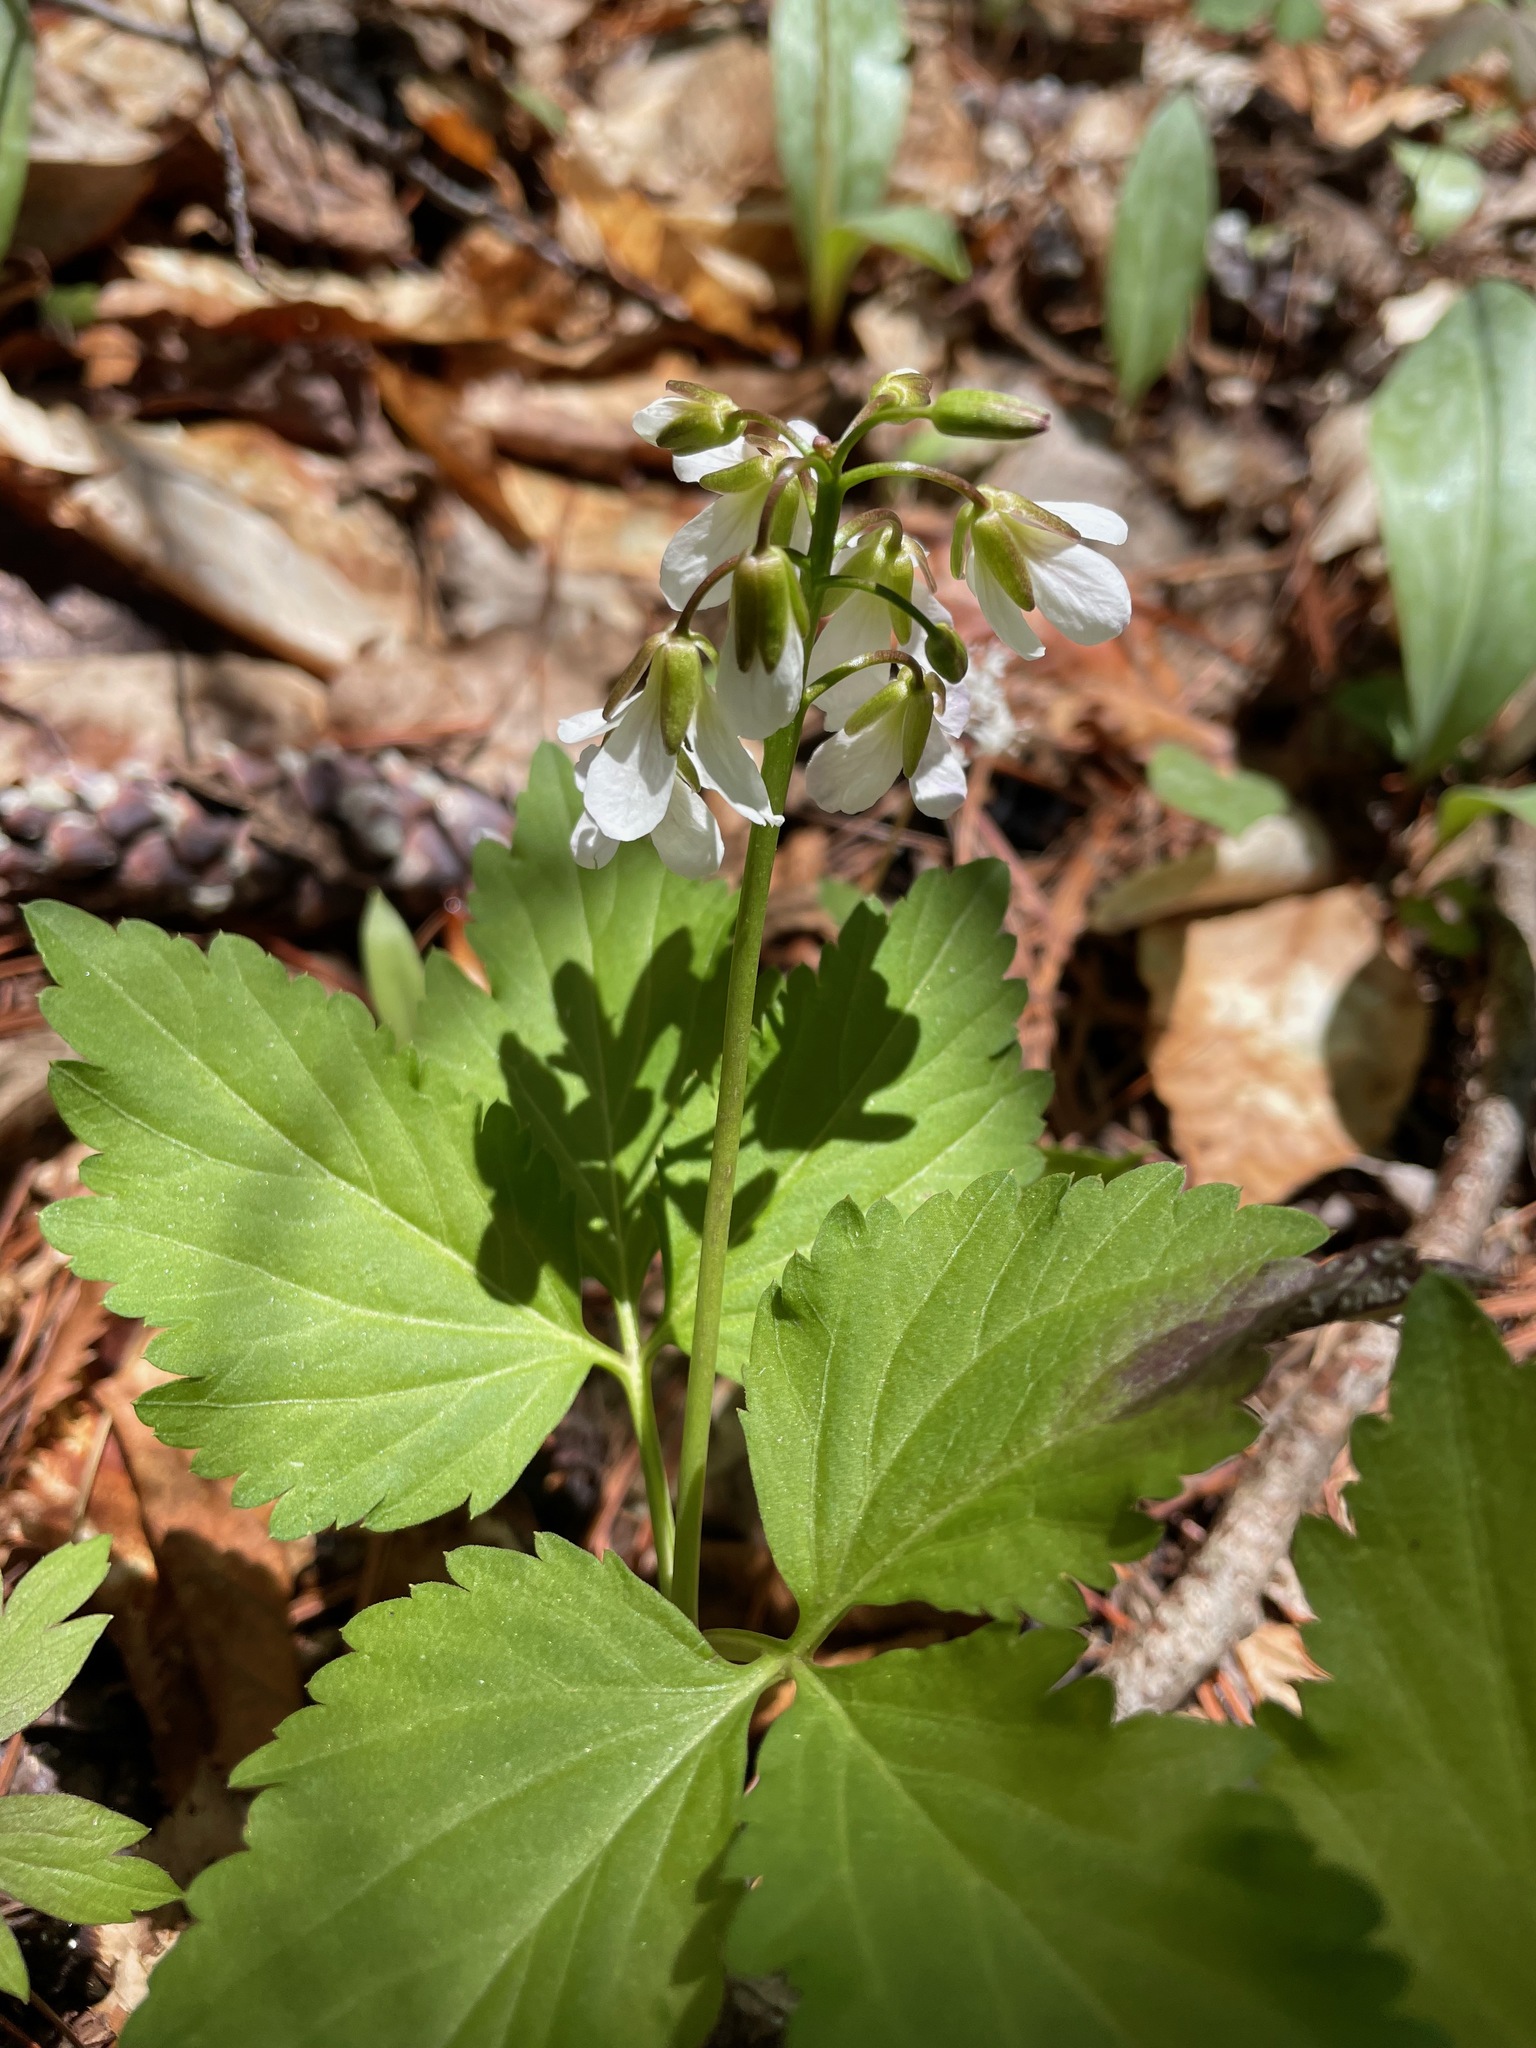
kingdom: Plantae
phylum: Tracheophyta
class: Magnoliopsida
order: Brassicales
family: Brassicaceae
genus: Cardamine
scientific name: Cardamine diphylla
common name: Broad-leaved toothwort
